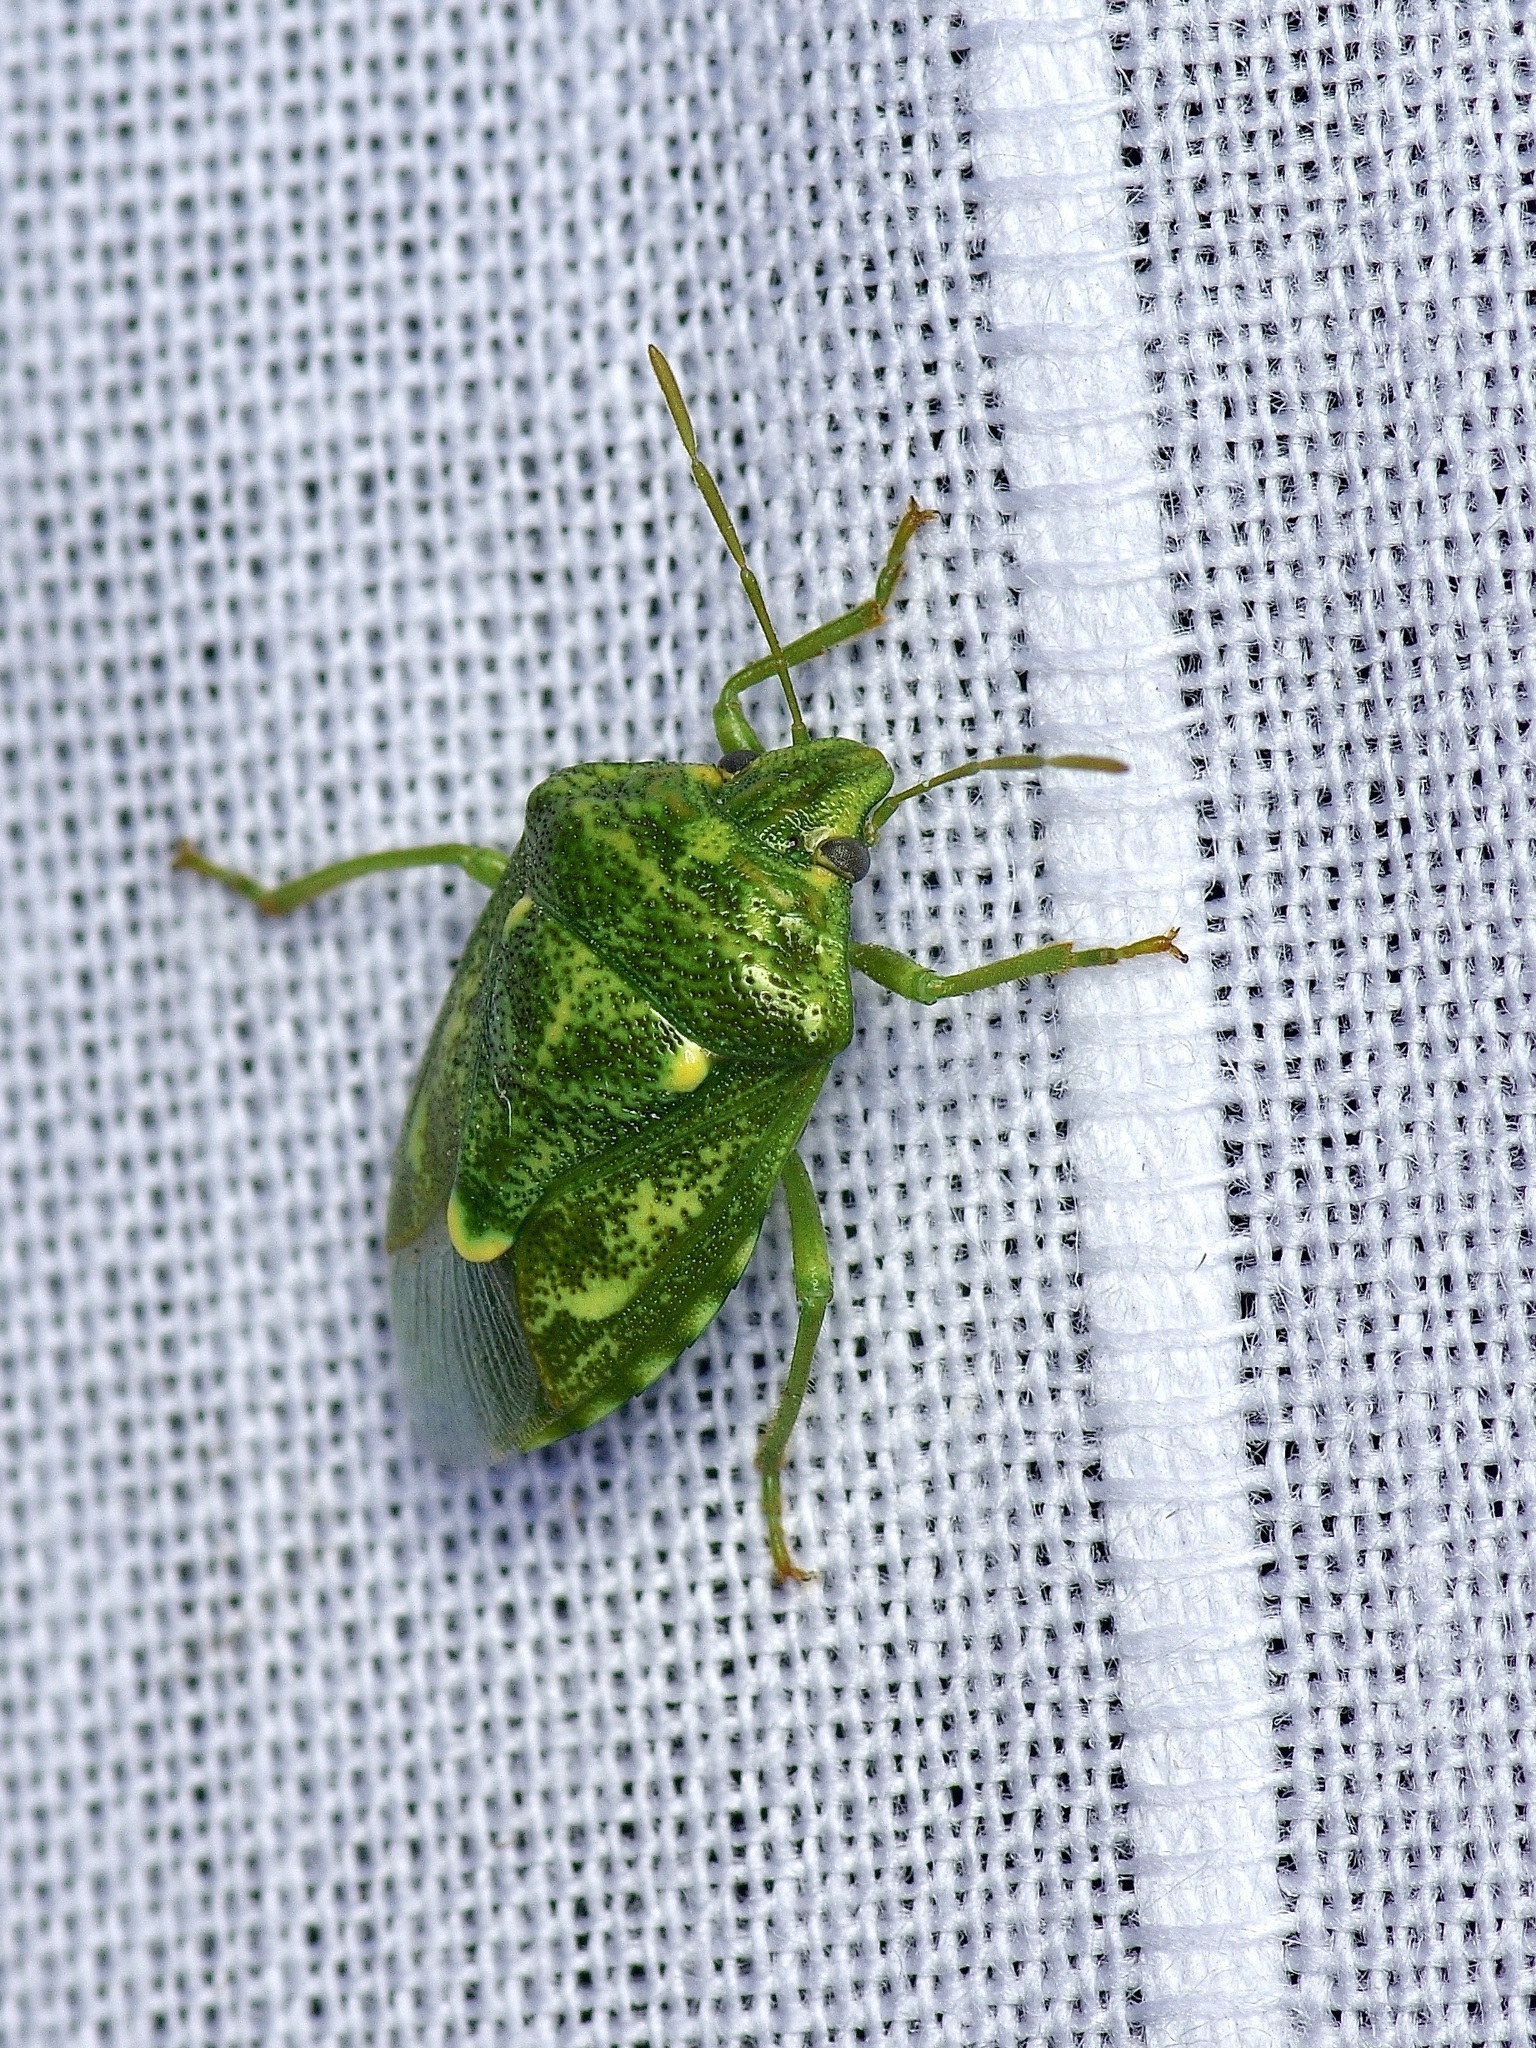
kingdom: Animalia
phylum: Arthropoda
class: Insecta
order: Hemiptera
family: Pentatomidae
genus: Banasa
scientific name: Banasa euchlora
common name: Cedar berry bug
